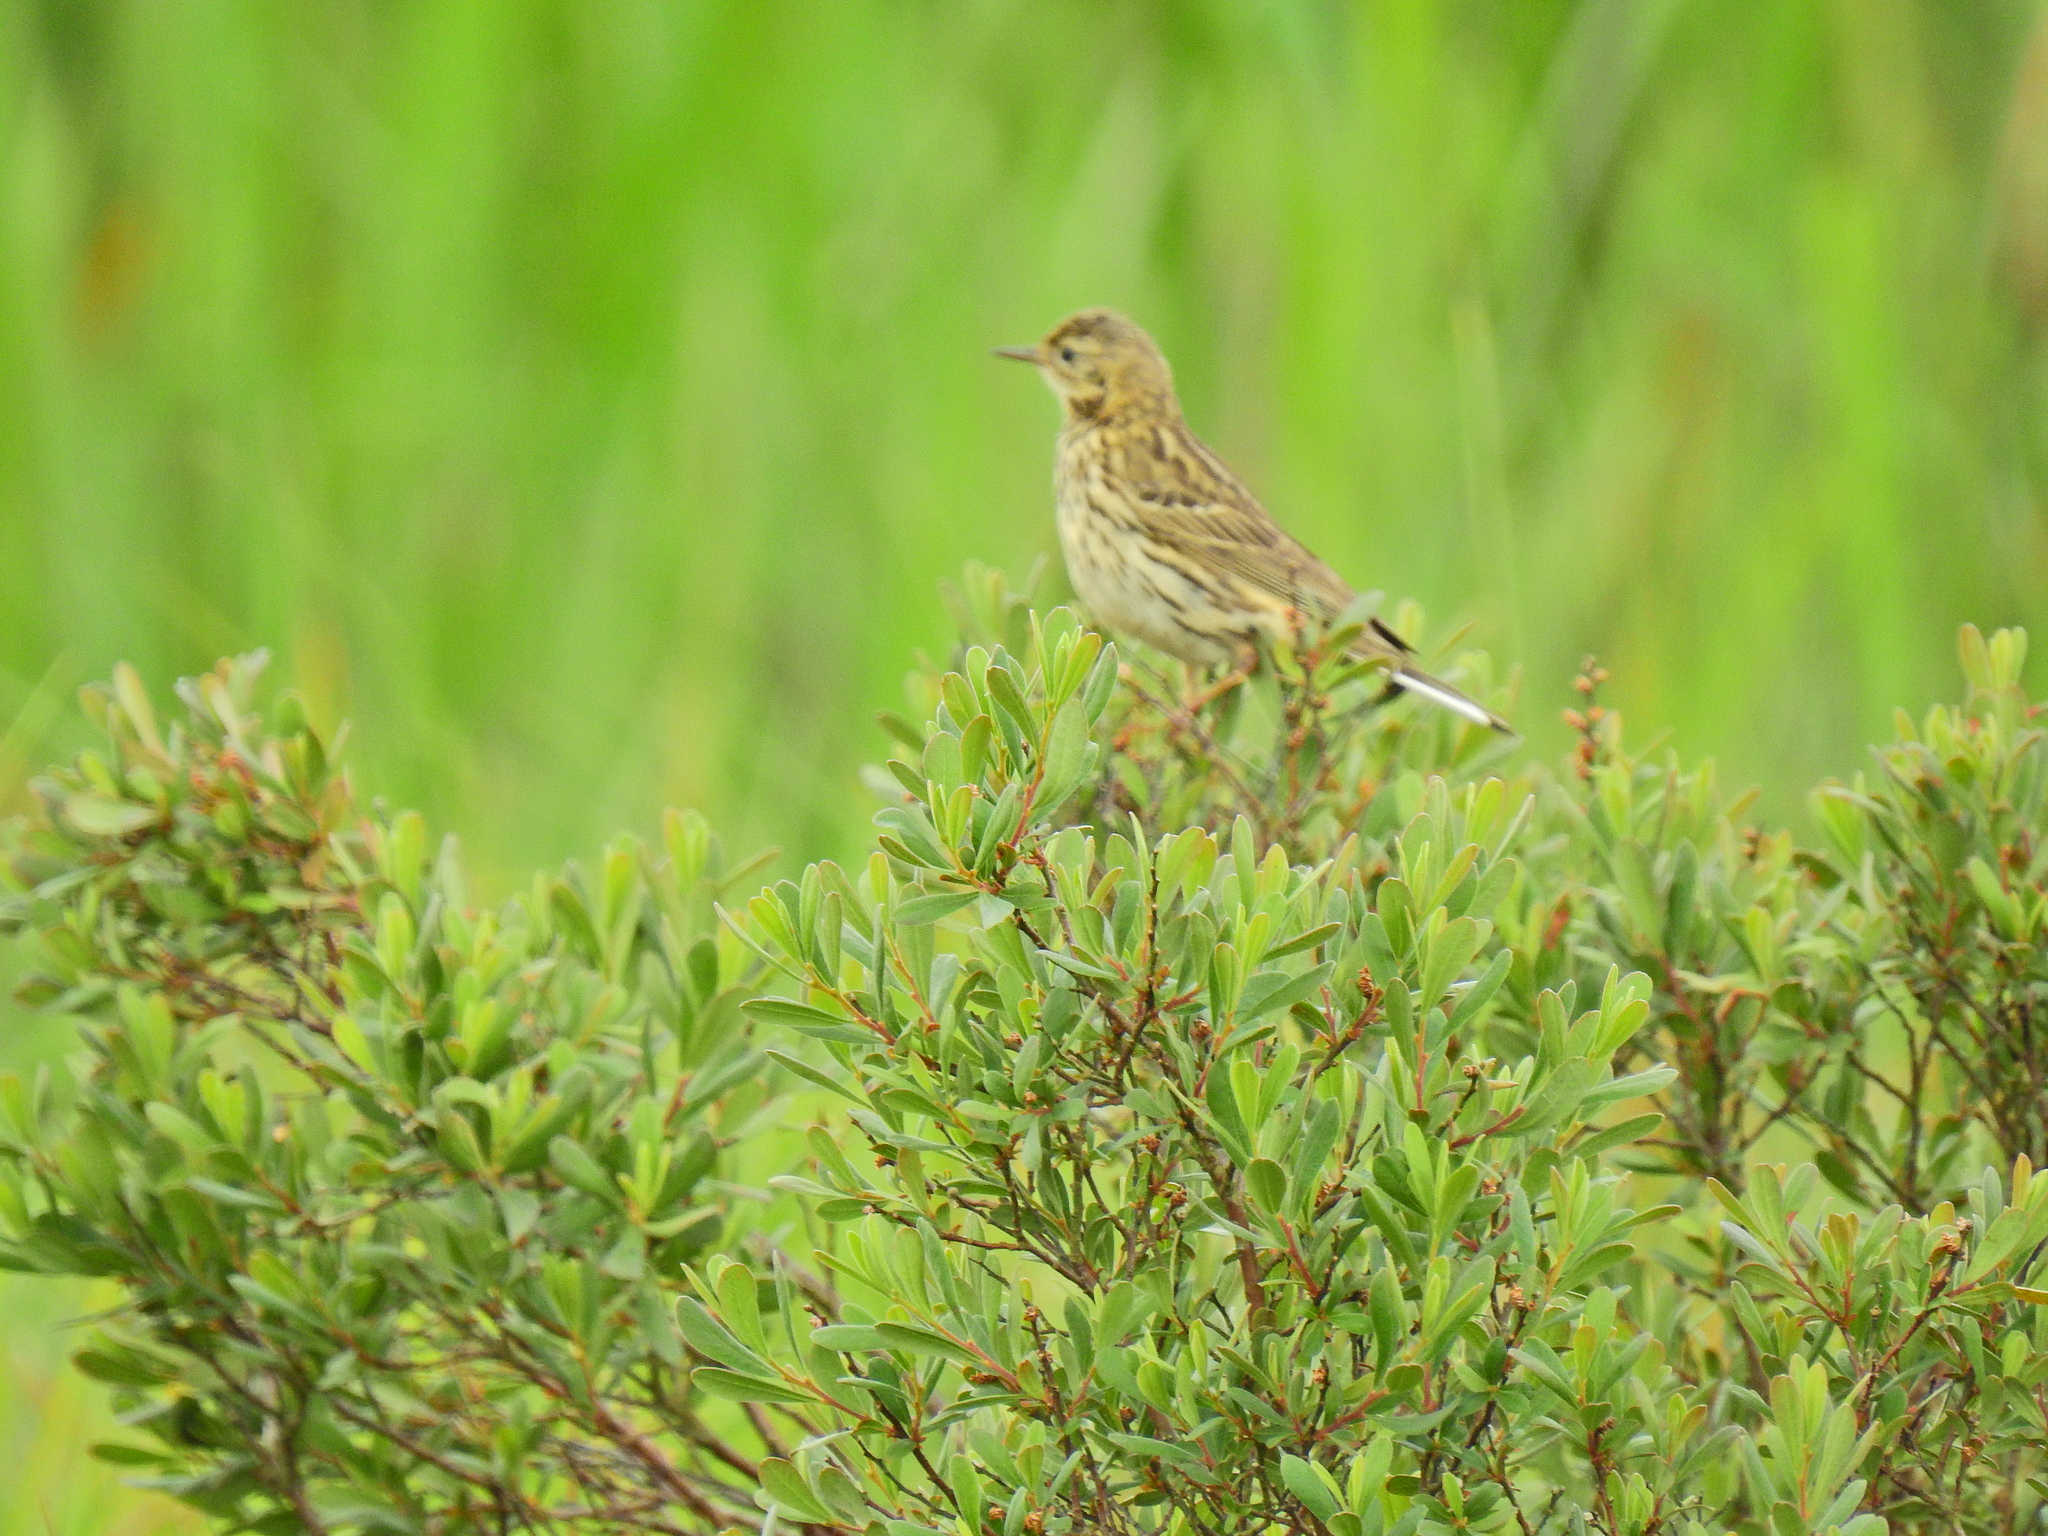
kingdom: Animalia
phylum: Chordata
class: Aves
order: Passeriformes
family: Motacillidae
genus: Anthus
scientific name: Anthus pratensis
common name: Meadow pipit
